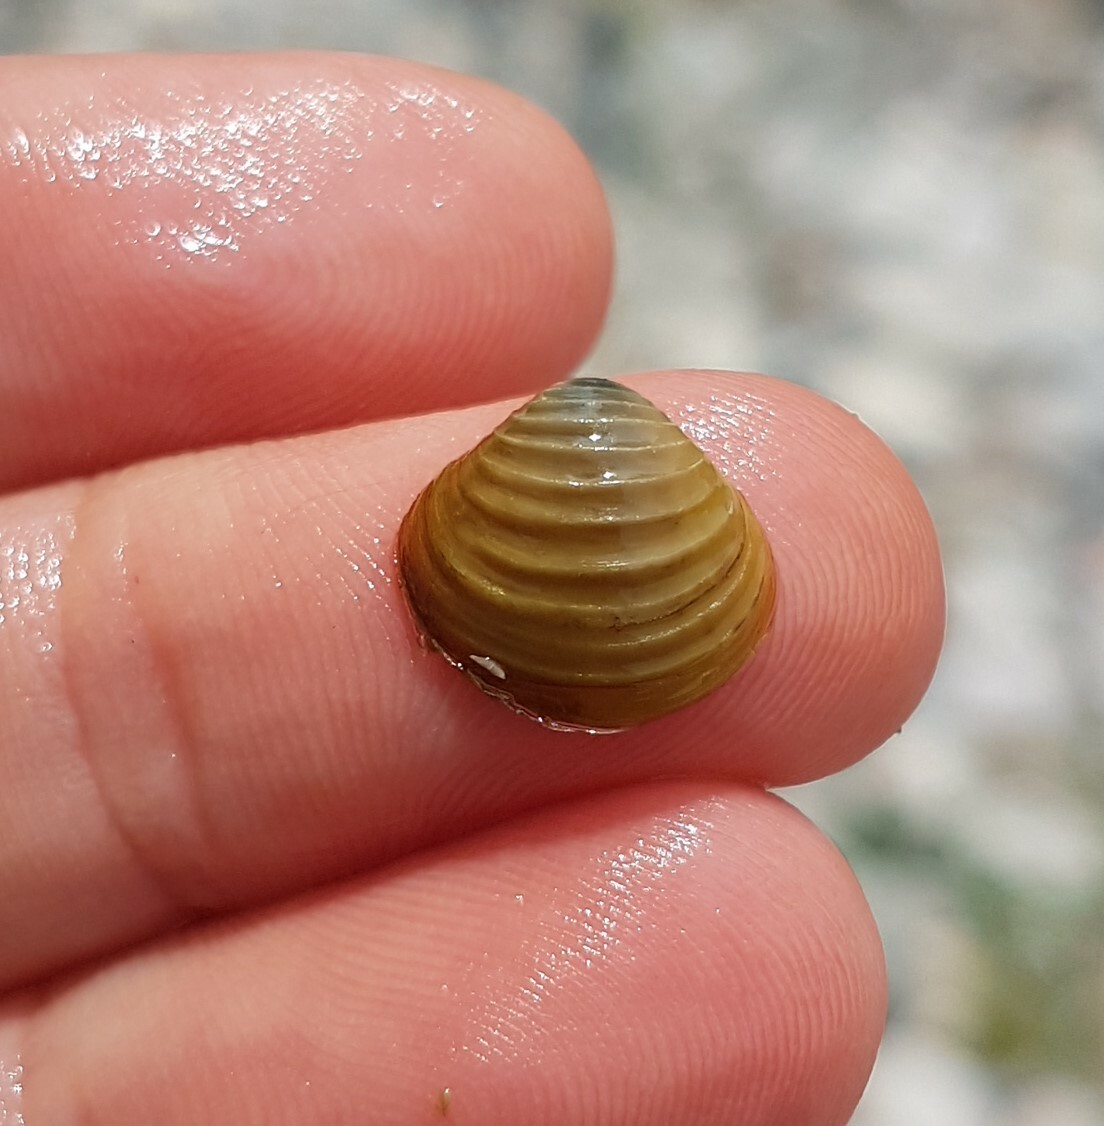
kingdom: Animalia
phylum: Mollusca
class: Bivalvia
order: Venerida
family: Cyrenidae
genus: Corbicula
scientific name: Corbicula fluminea
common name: Asian clam
